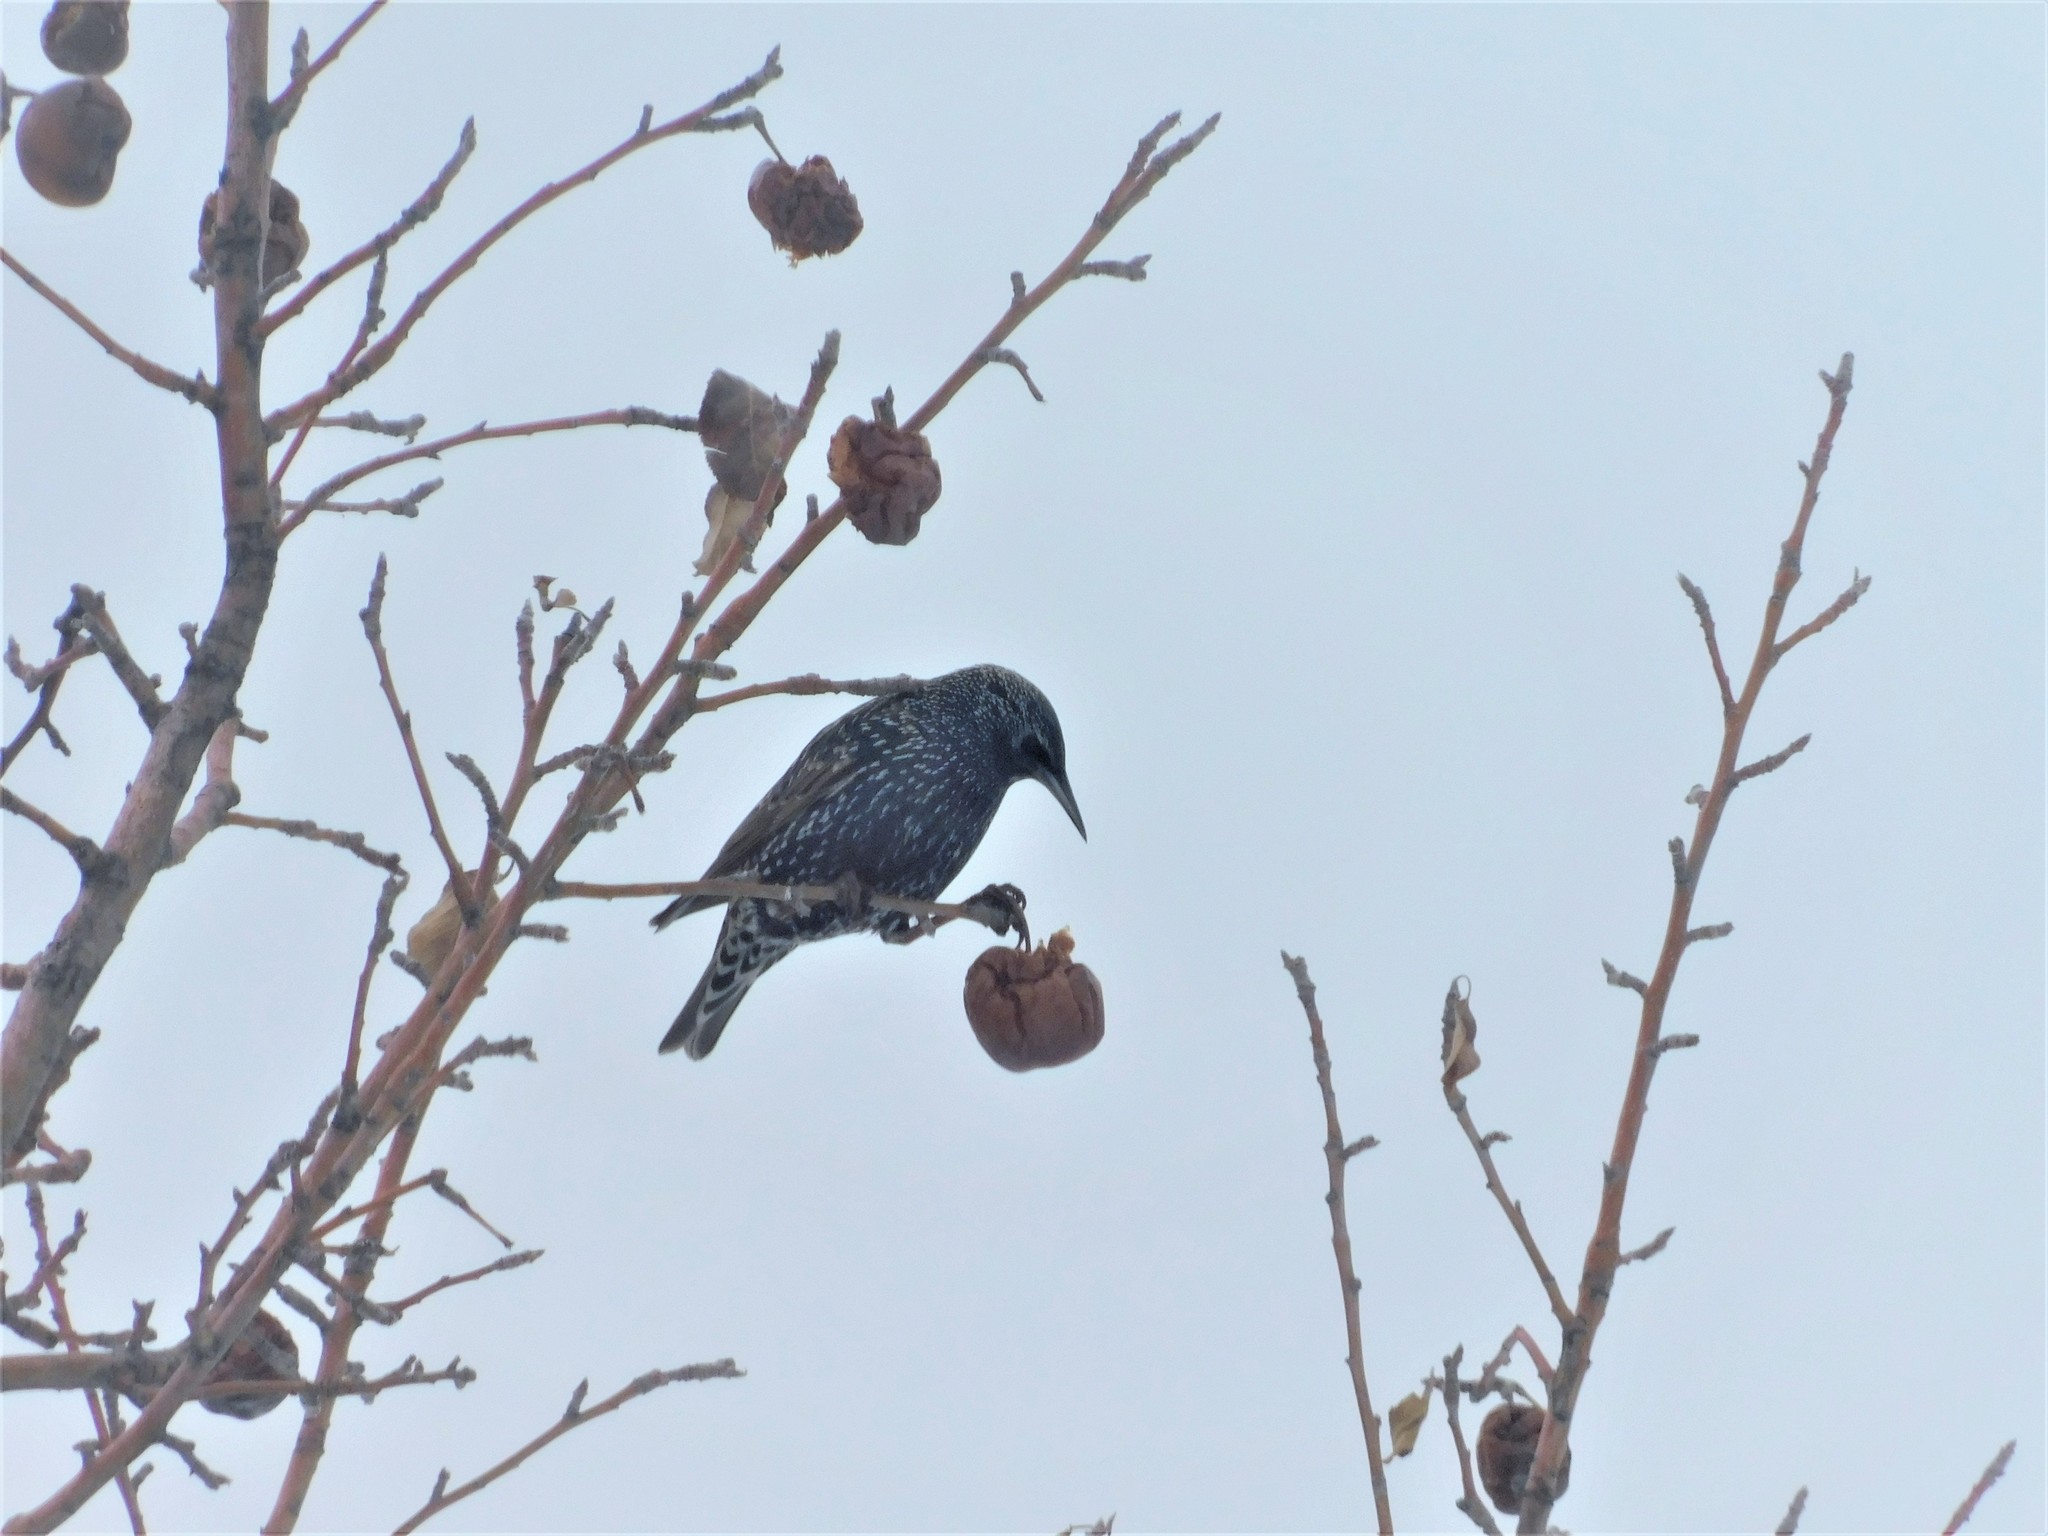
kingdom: Animalia
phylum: Chordata
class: Aves
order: Passeriformes
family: Sturnidae
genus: Sturnus
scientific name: Sturnus vulgaris
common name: Common starling
